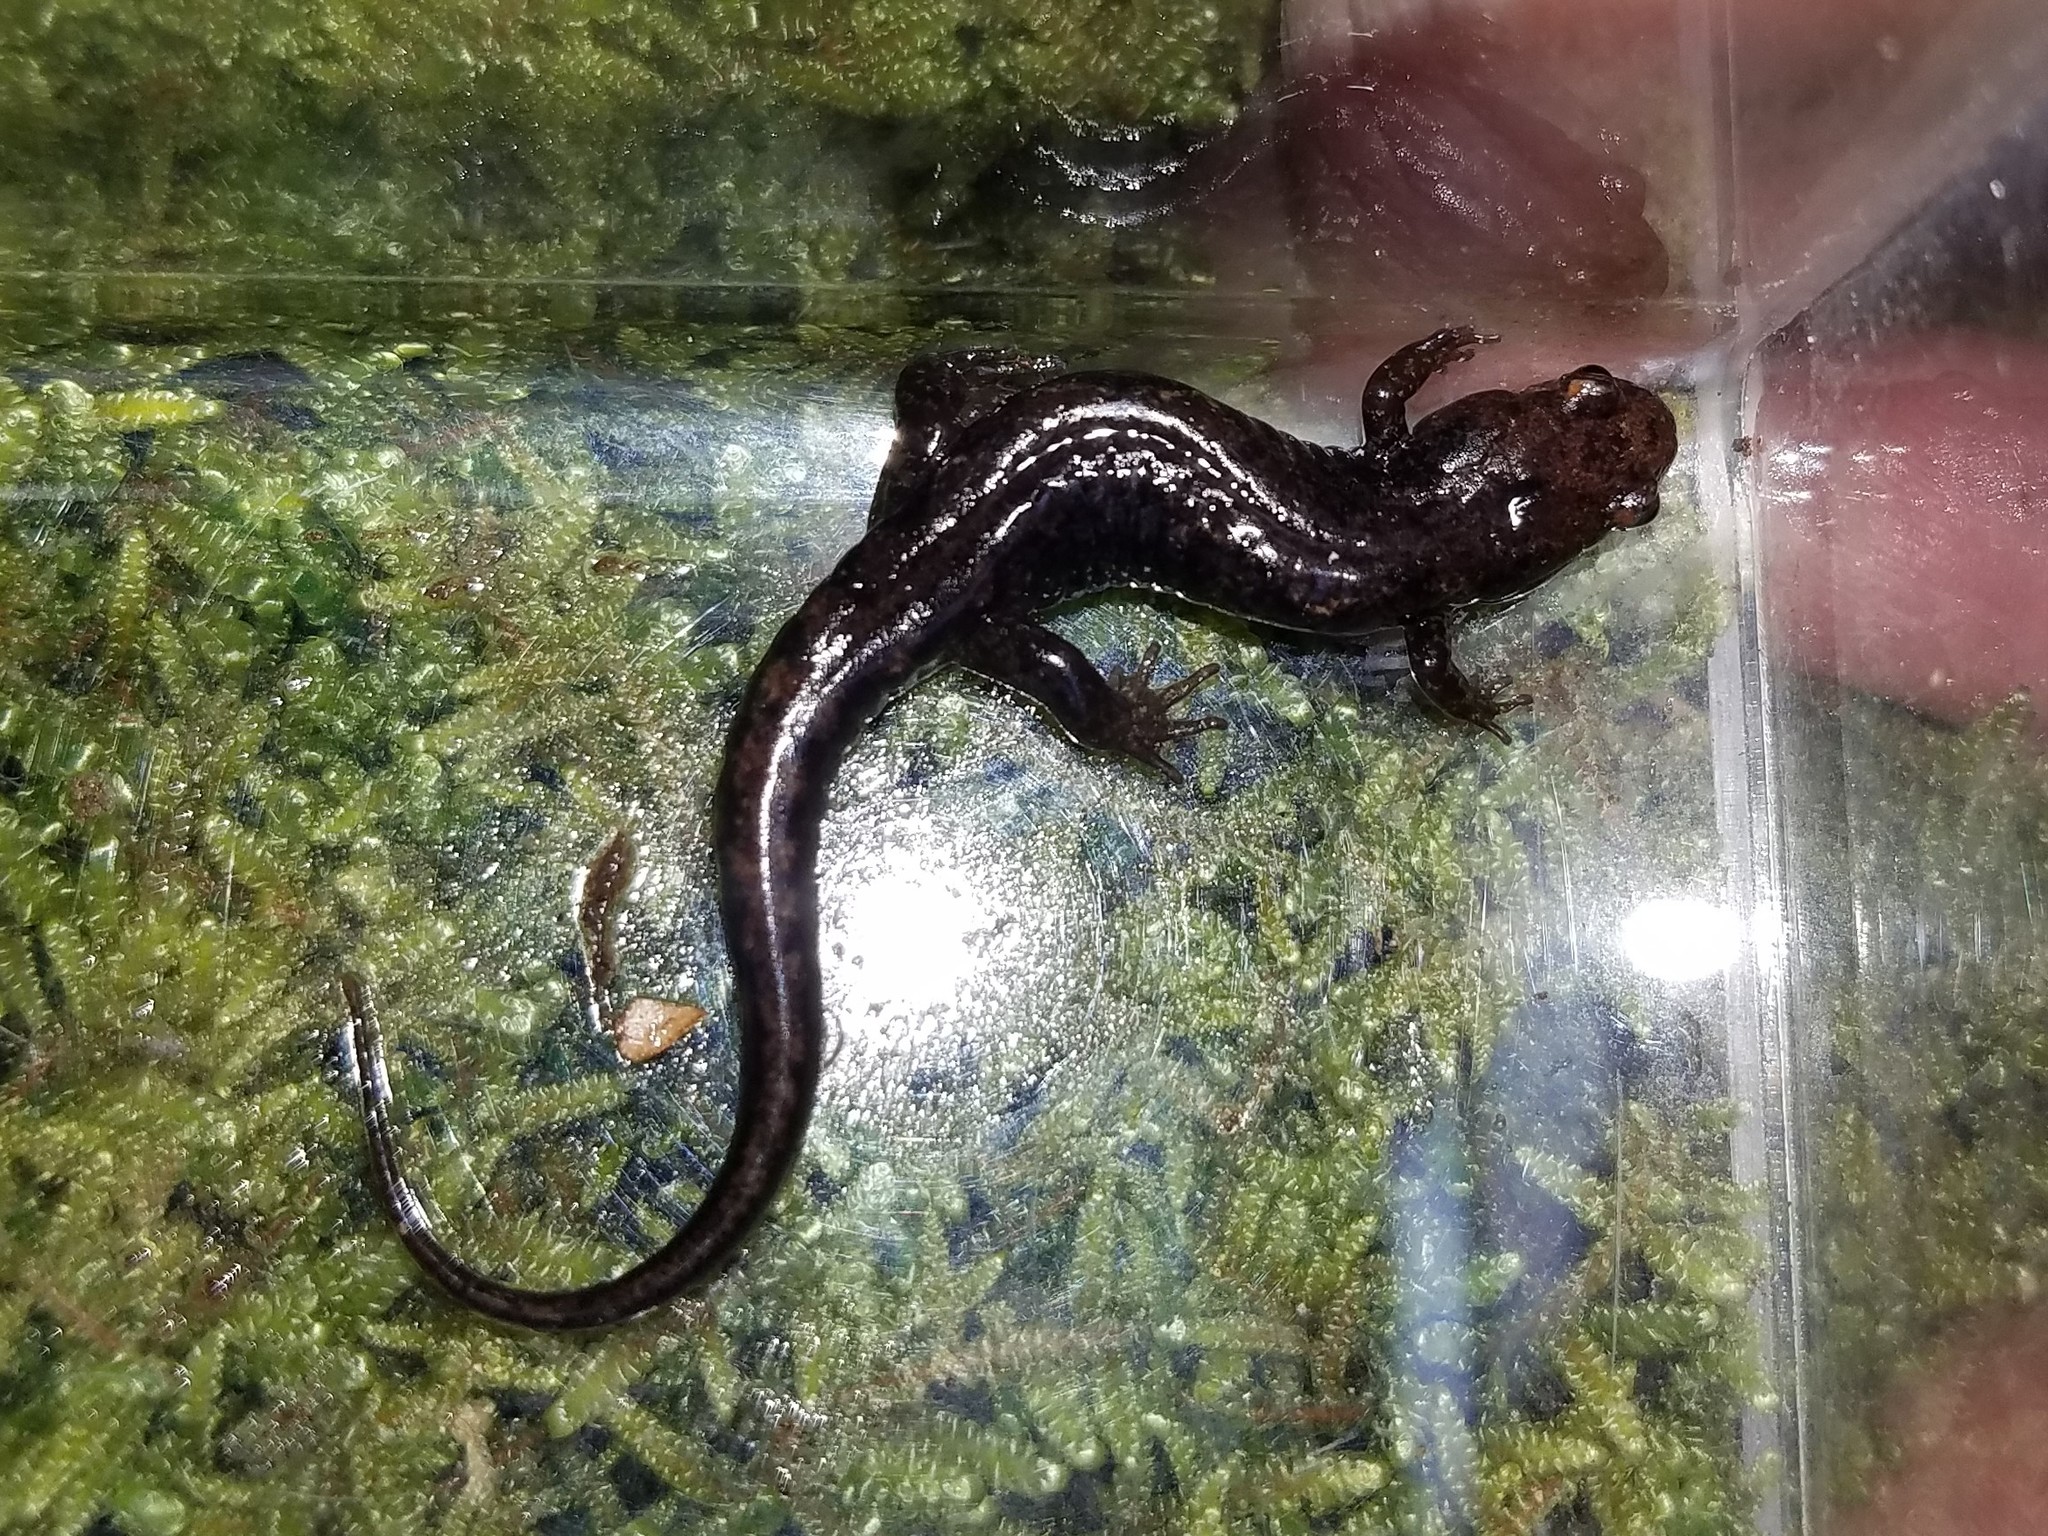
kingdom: Animalia
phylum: Chordata
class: Amphibia
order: Caudata
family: Plethodontidae
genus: Desmognathus
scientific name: Desmognathus ocoee
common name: Ocoee salamander
